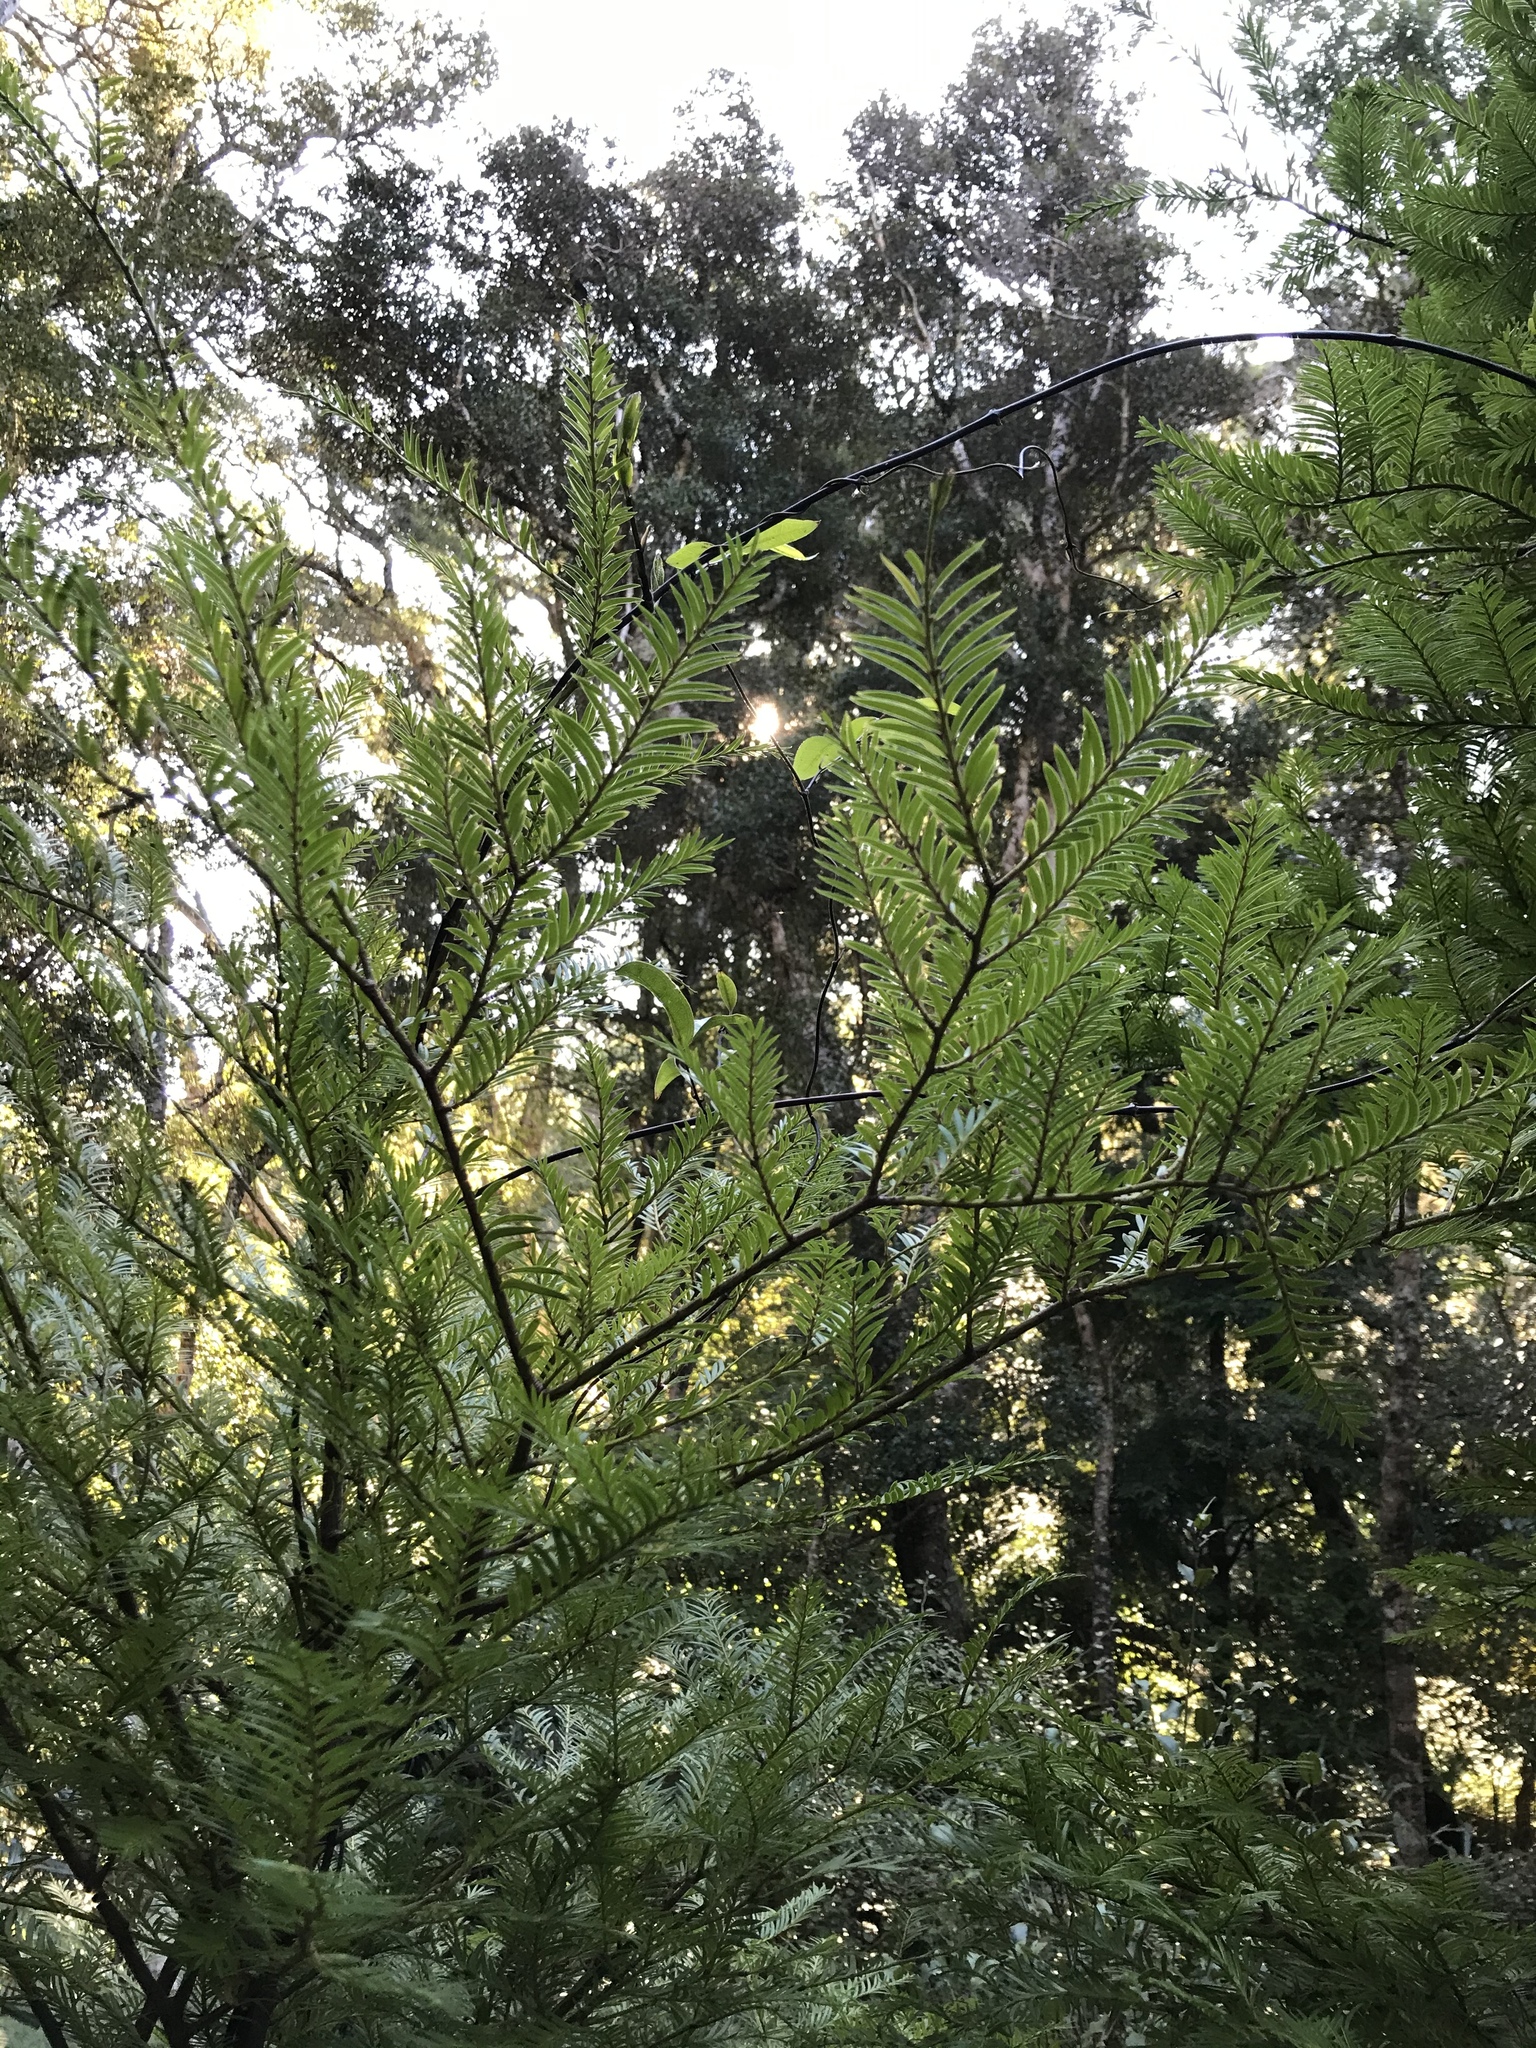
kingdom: Plantae
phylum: Tracheophyta
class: Pinopsida
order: Pinales
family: Podocarpaceae
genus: Prumnopitys
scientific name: Prumnopitys ferruginea
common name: Brown pine
